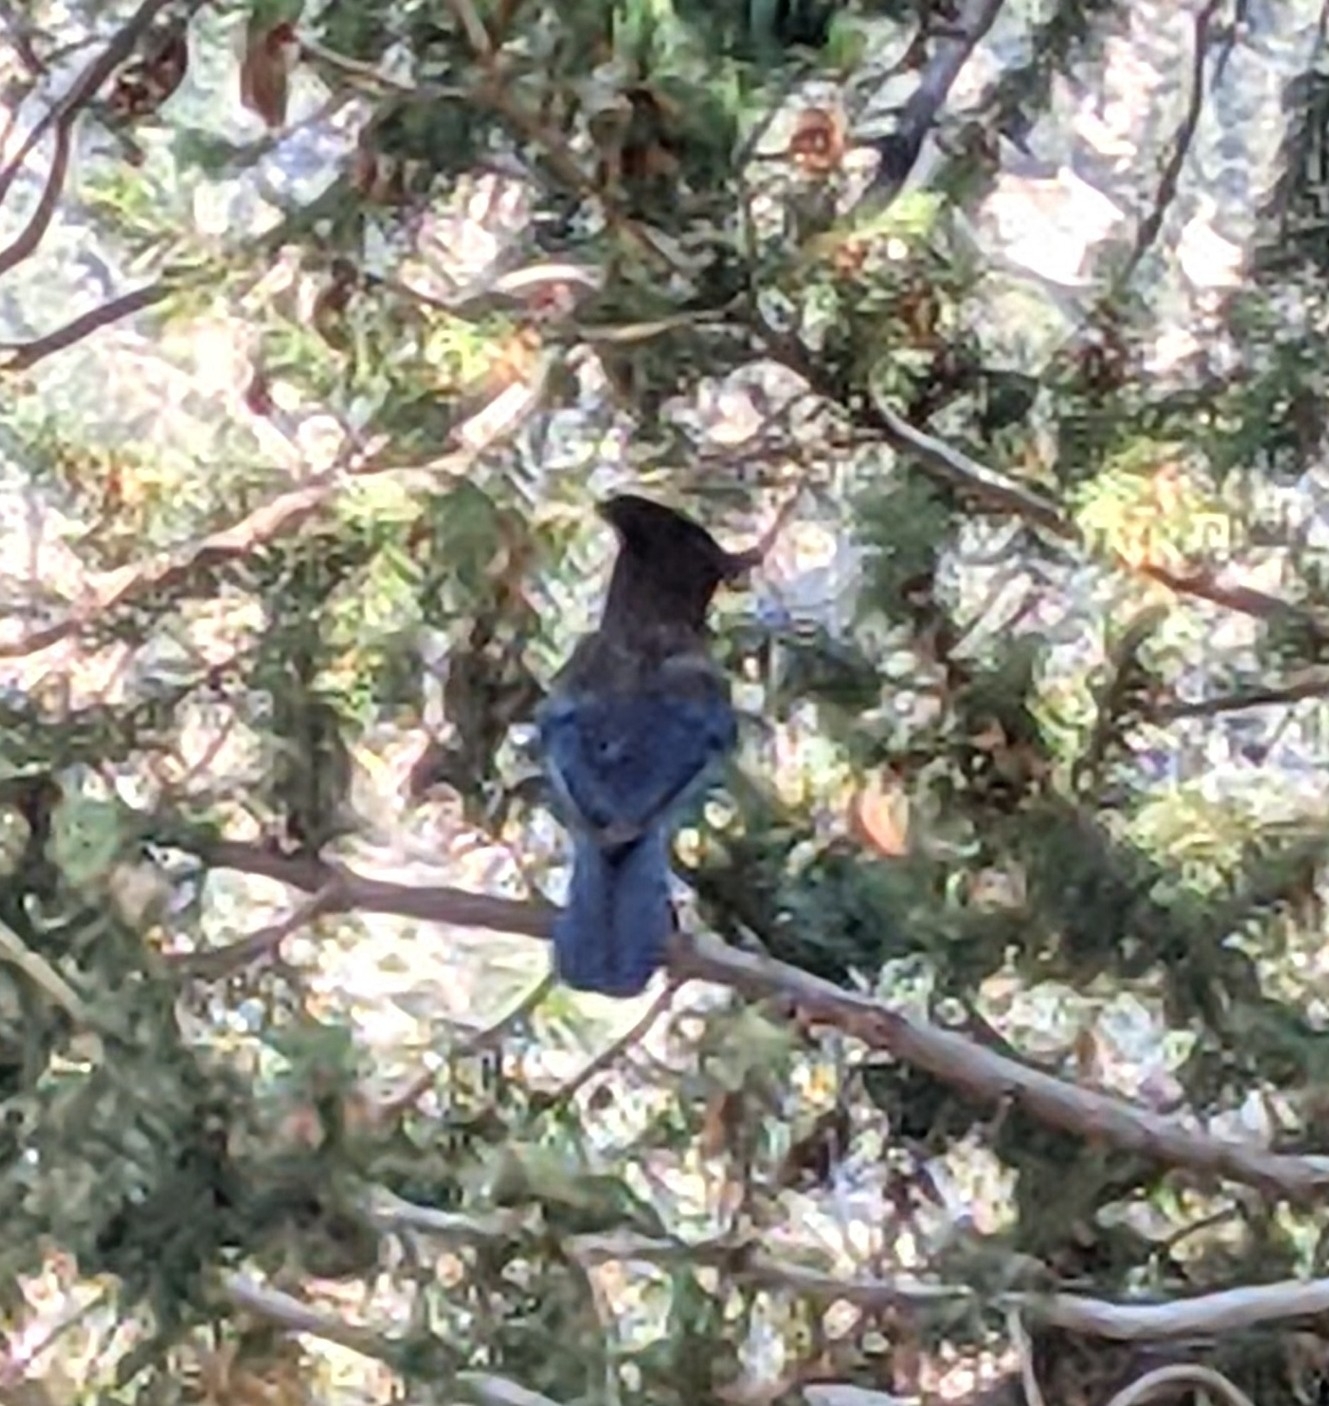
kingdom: Animalia
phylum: Chordata
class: Aves
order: Passeriformes
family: Corvidae
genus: Cyanocitta
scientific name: Cyanocitta stelleri
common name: Steller's jay
